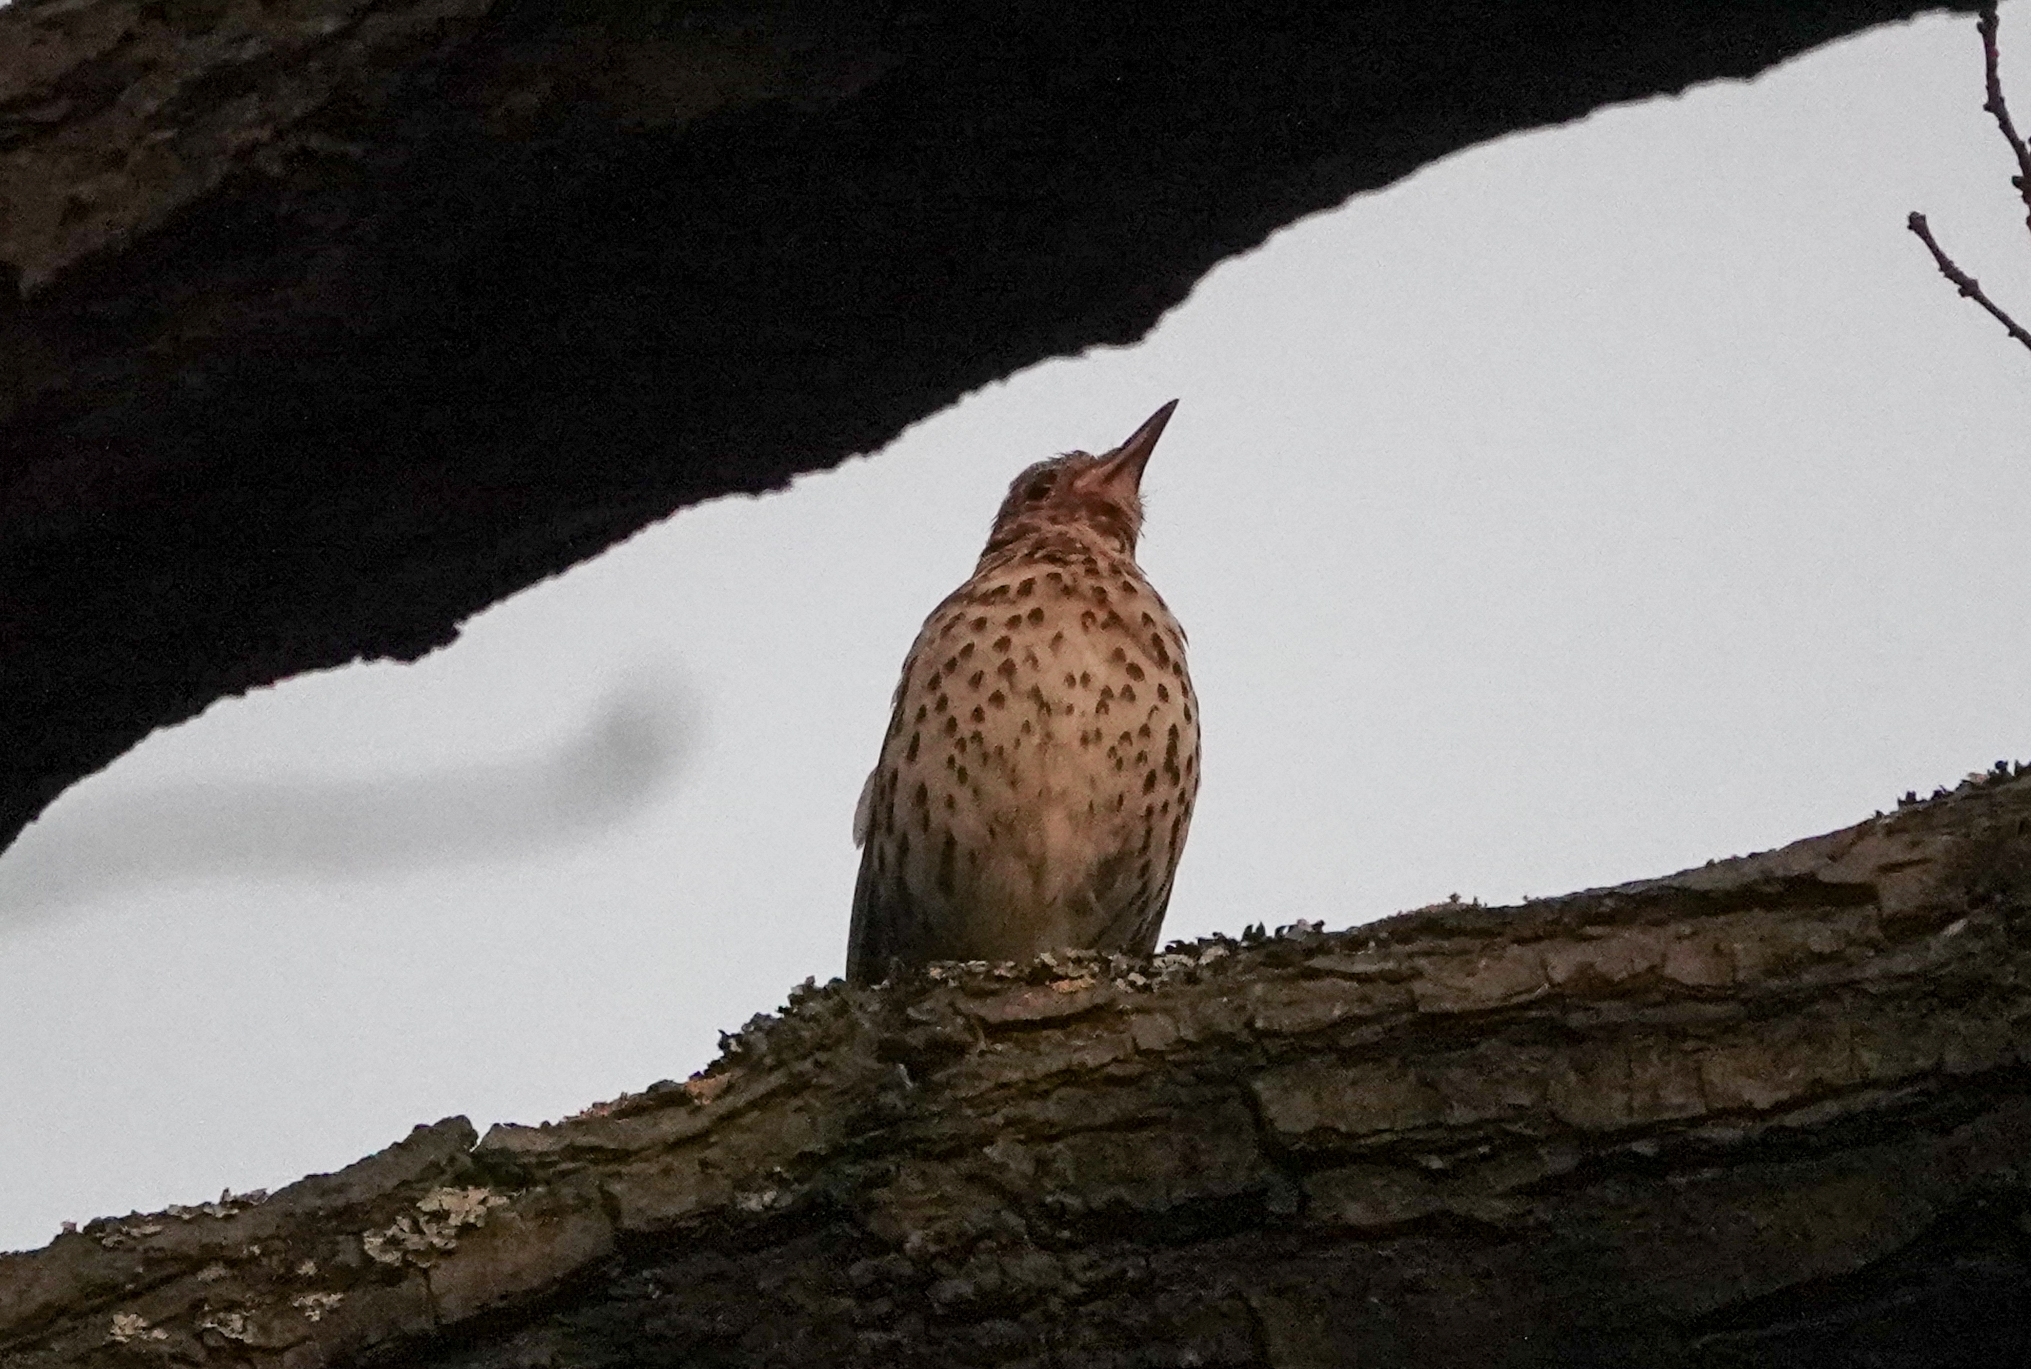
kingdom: Animalia
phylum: Chordata
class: Aves
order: Passeriformes
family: Turdidae
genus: Turdus
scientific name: Turdus philomelos
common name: Song thrush
